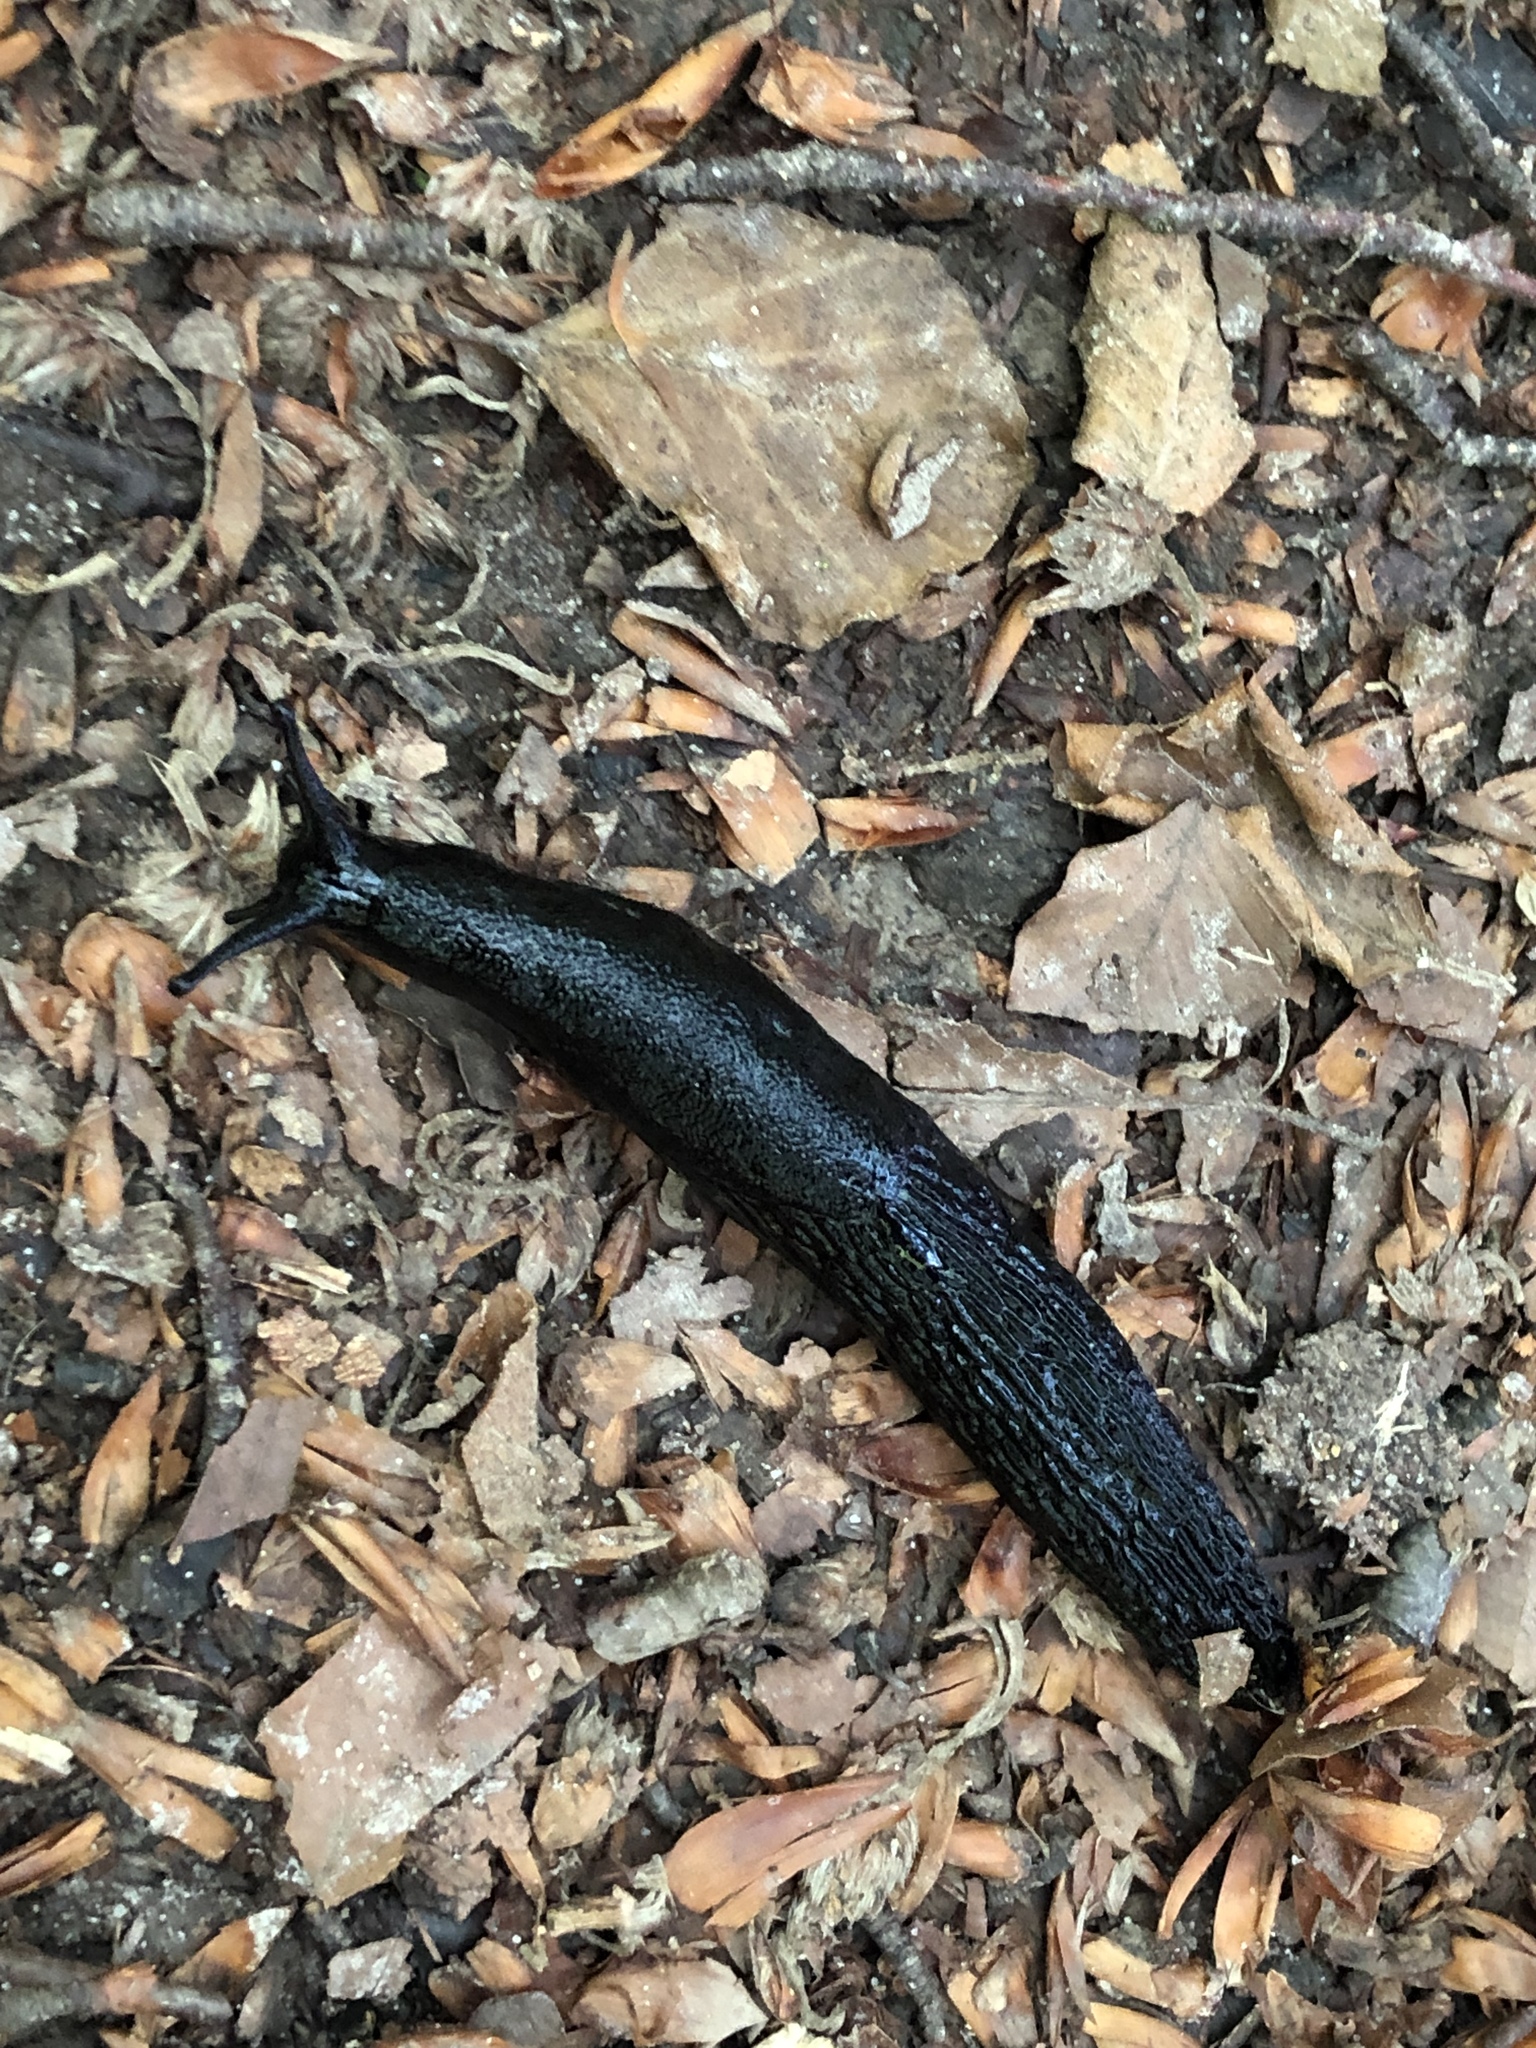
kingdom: Animalia
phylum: Mollusca
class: Gastropoda
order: Stylommatophora
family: Arionidae
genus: Arion
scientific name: Arion ater
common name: Black arion
